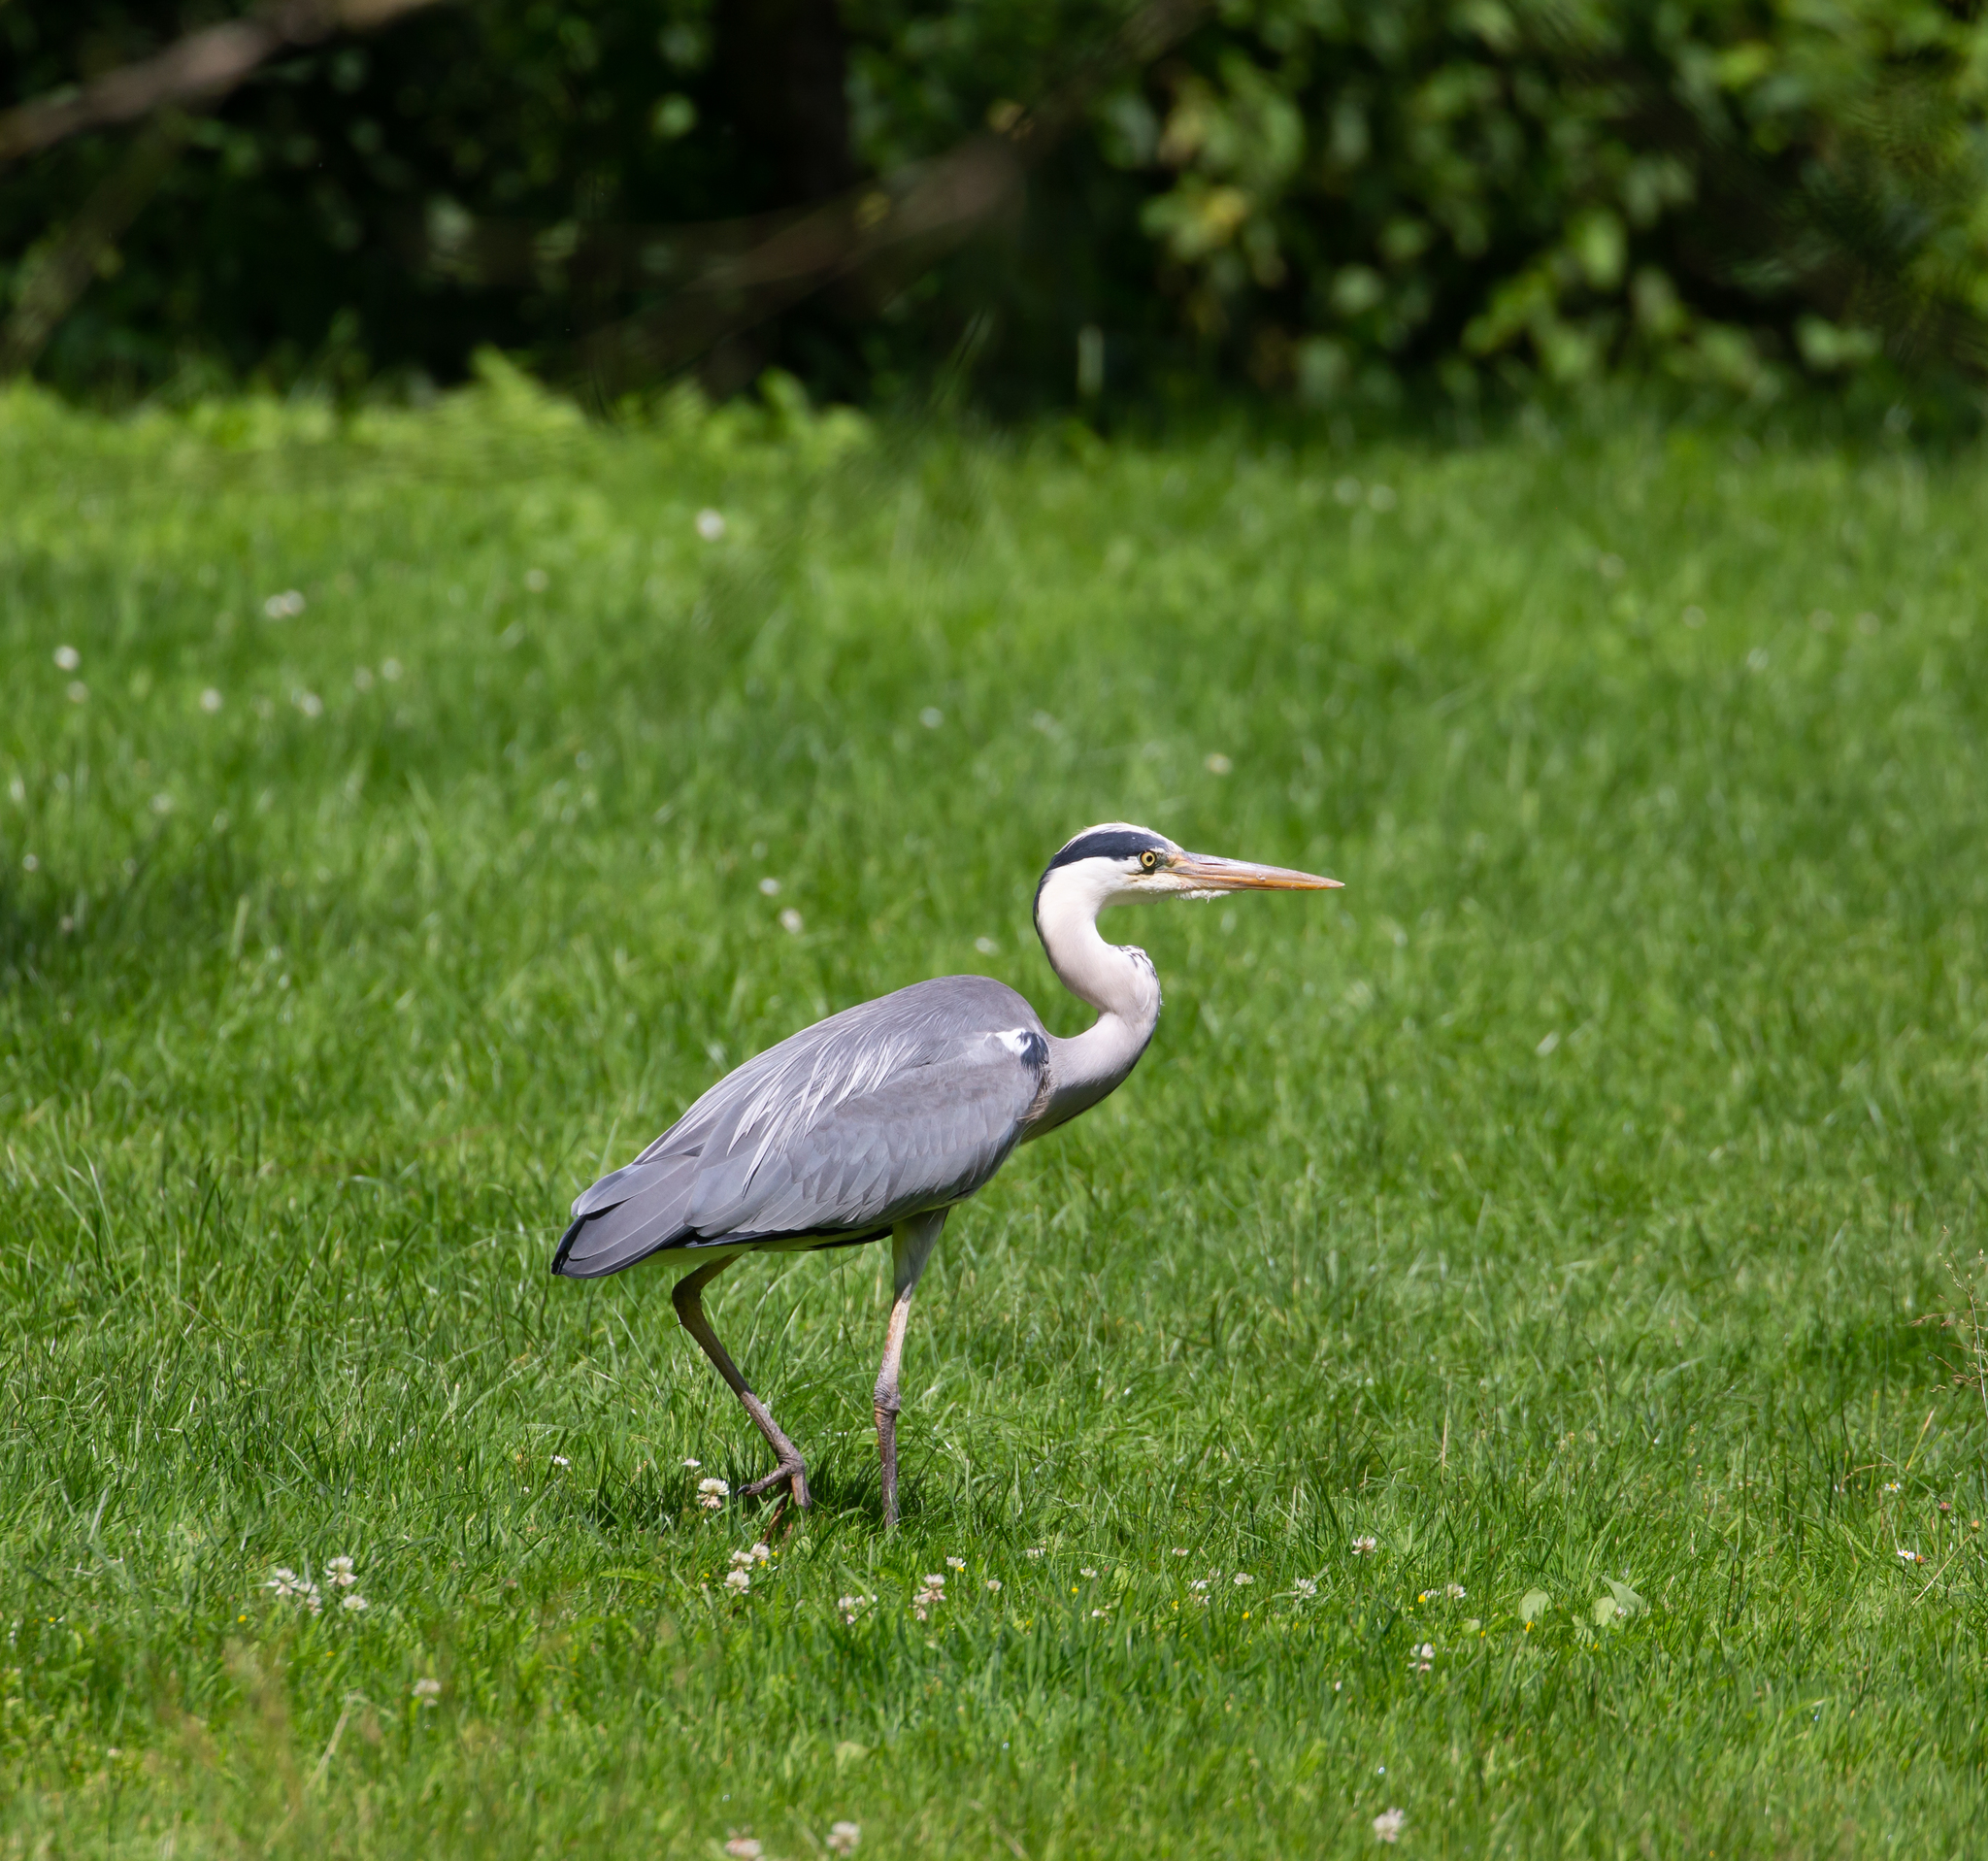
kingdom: Animalia
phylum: Chordata
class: Aves
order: Pelecaniformes
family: Ardeidae
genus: Ardea
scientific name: Ardea cinerea
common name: Grey heron
